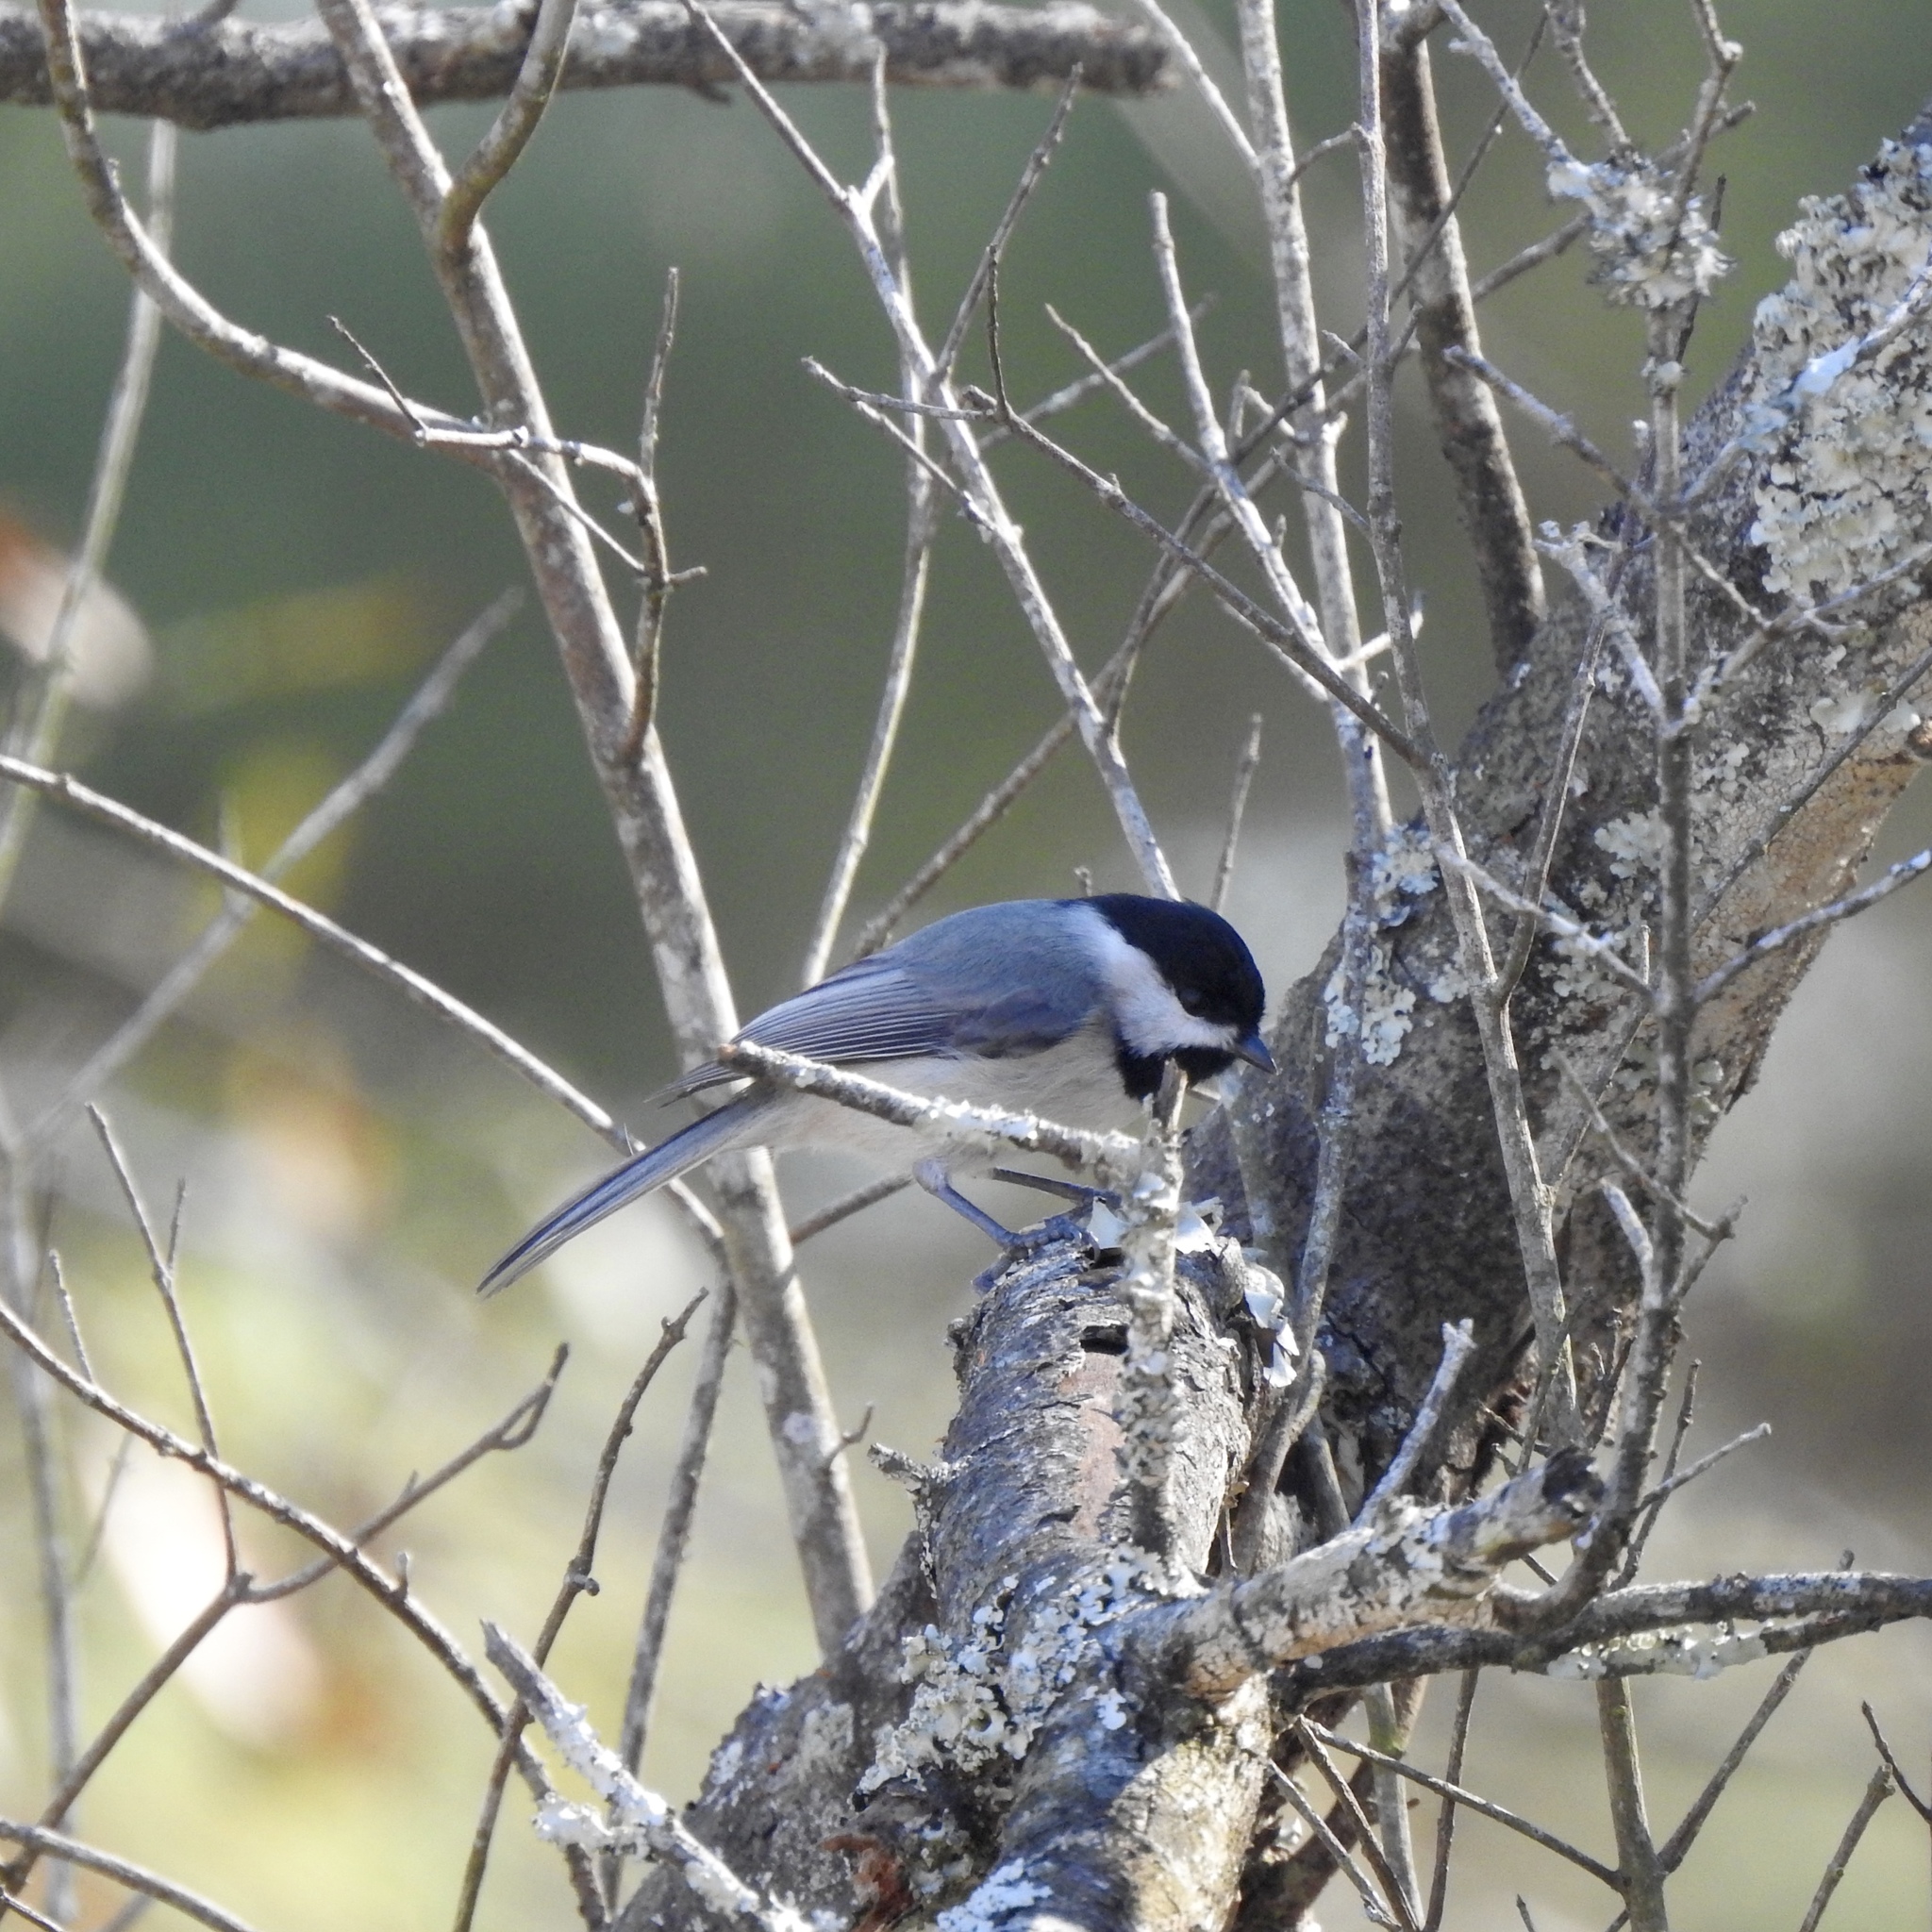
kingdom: Animalia
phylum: Chordata
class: Aves
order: Passeriformes
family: Paridae
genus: Poecile
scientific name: Poecile carolinensis
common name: Carolina chickadee
